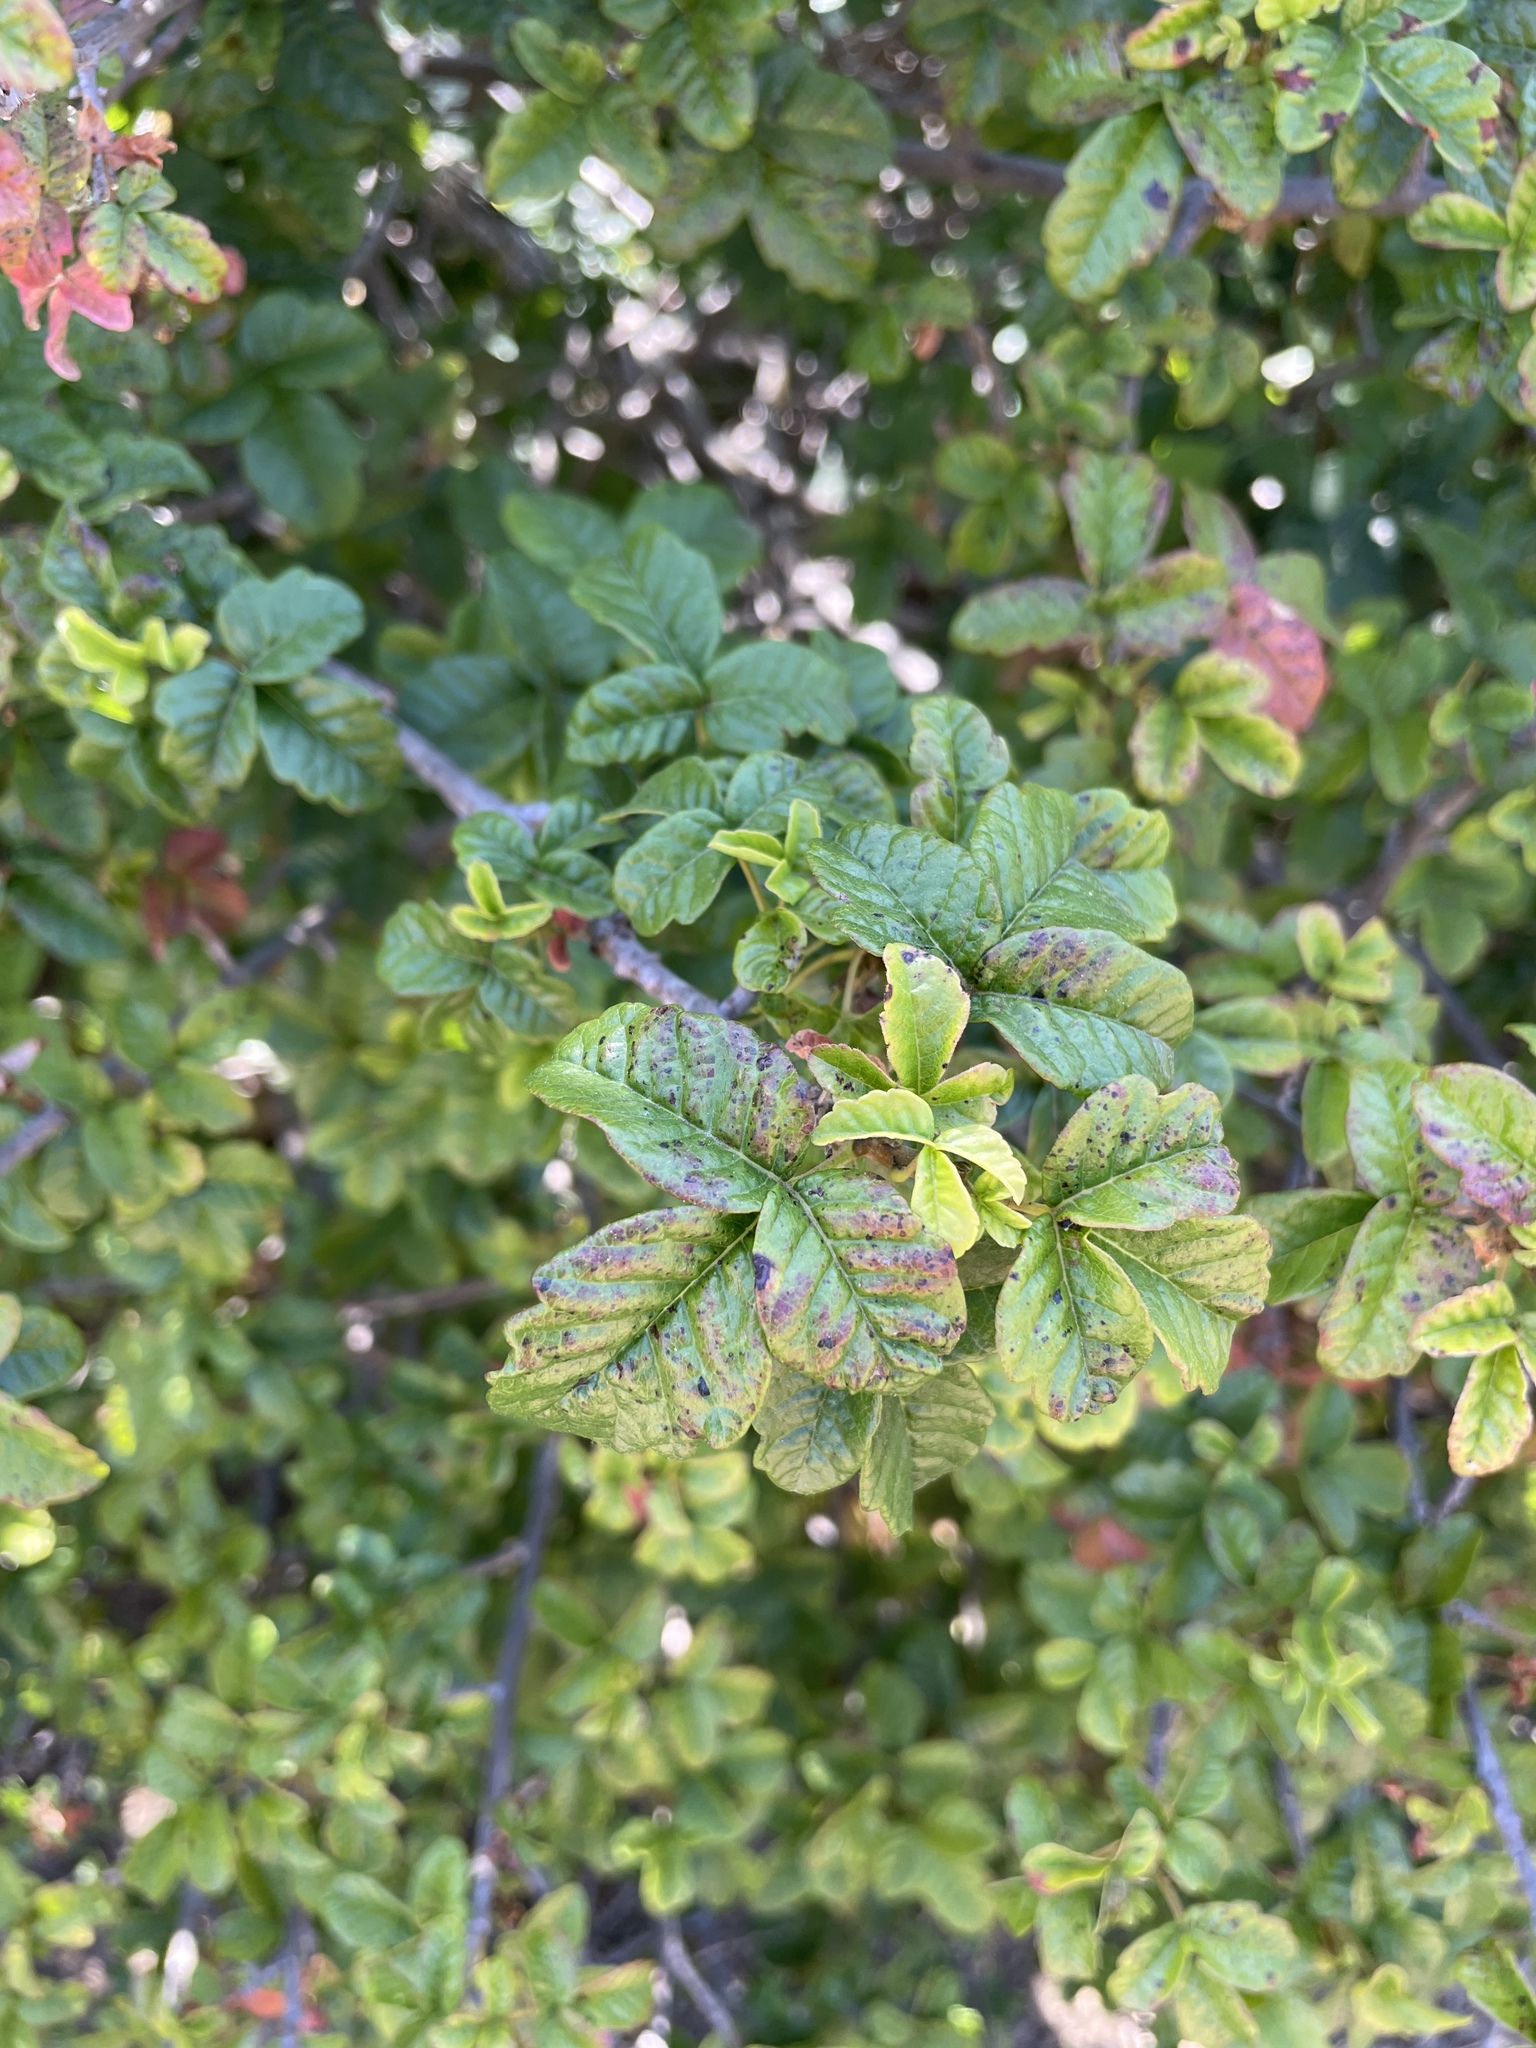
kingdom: Plantae
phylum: Tracheophyta
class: Magnoliopsida
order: Sapindales
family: Anacardiaceae
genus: Toxicodendron
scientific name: Toxicodendron diversilobum
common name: Pacific poison-oak
